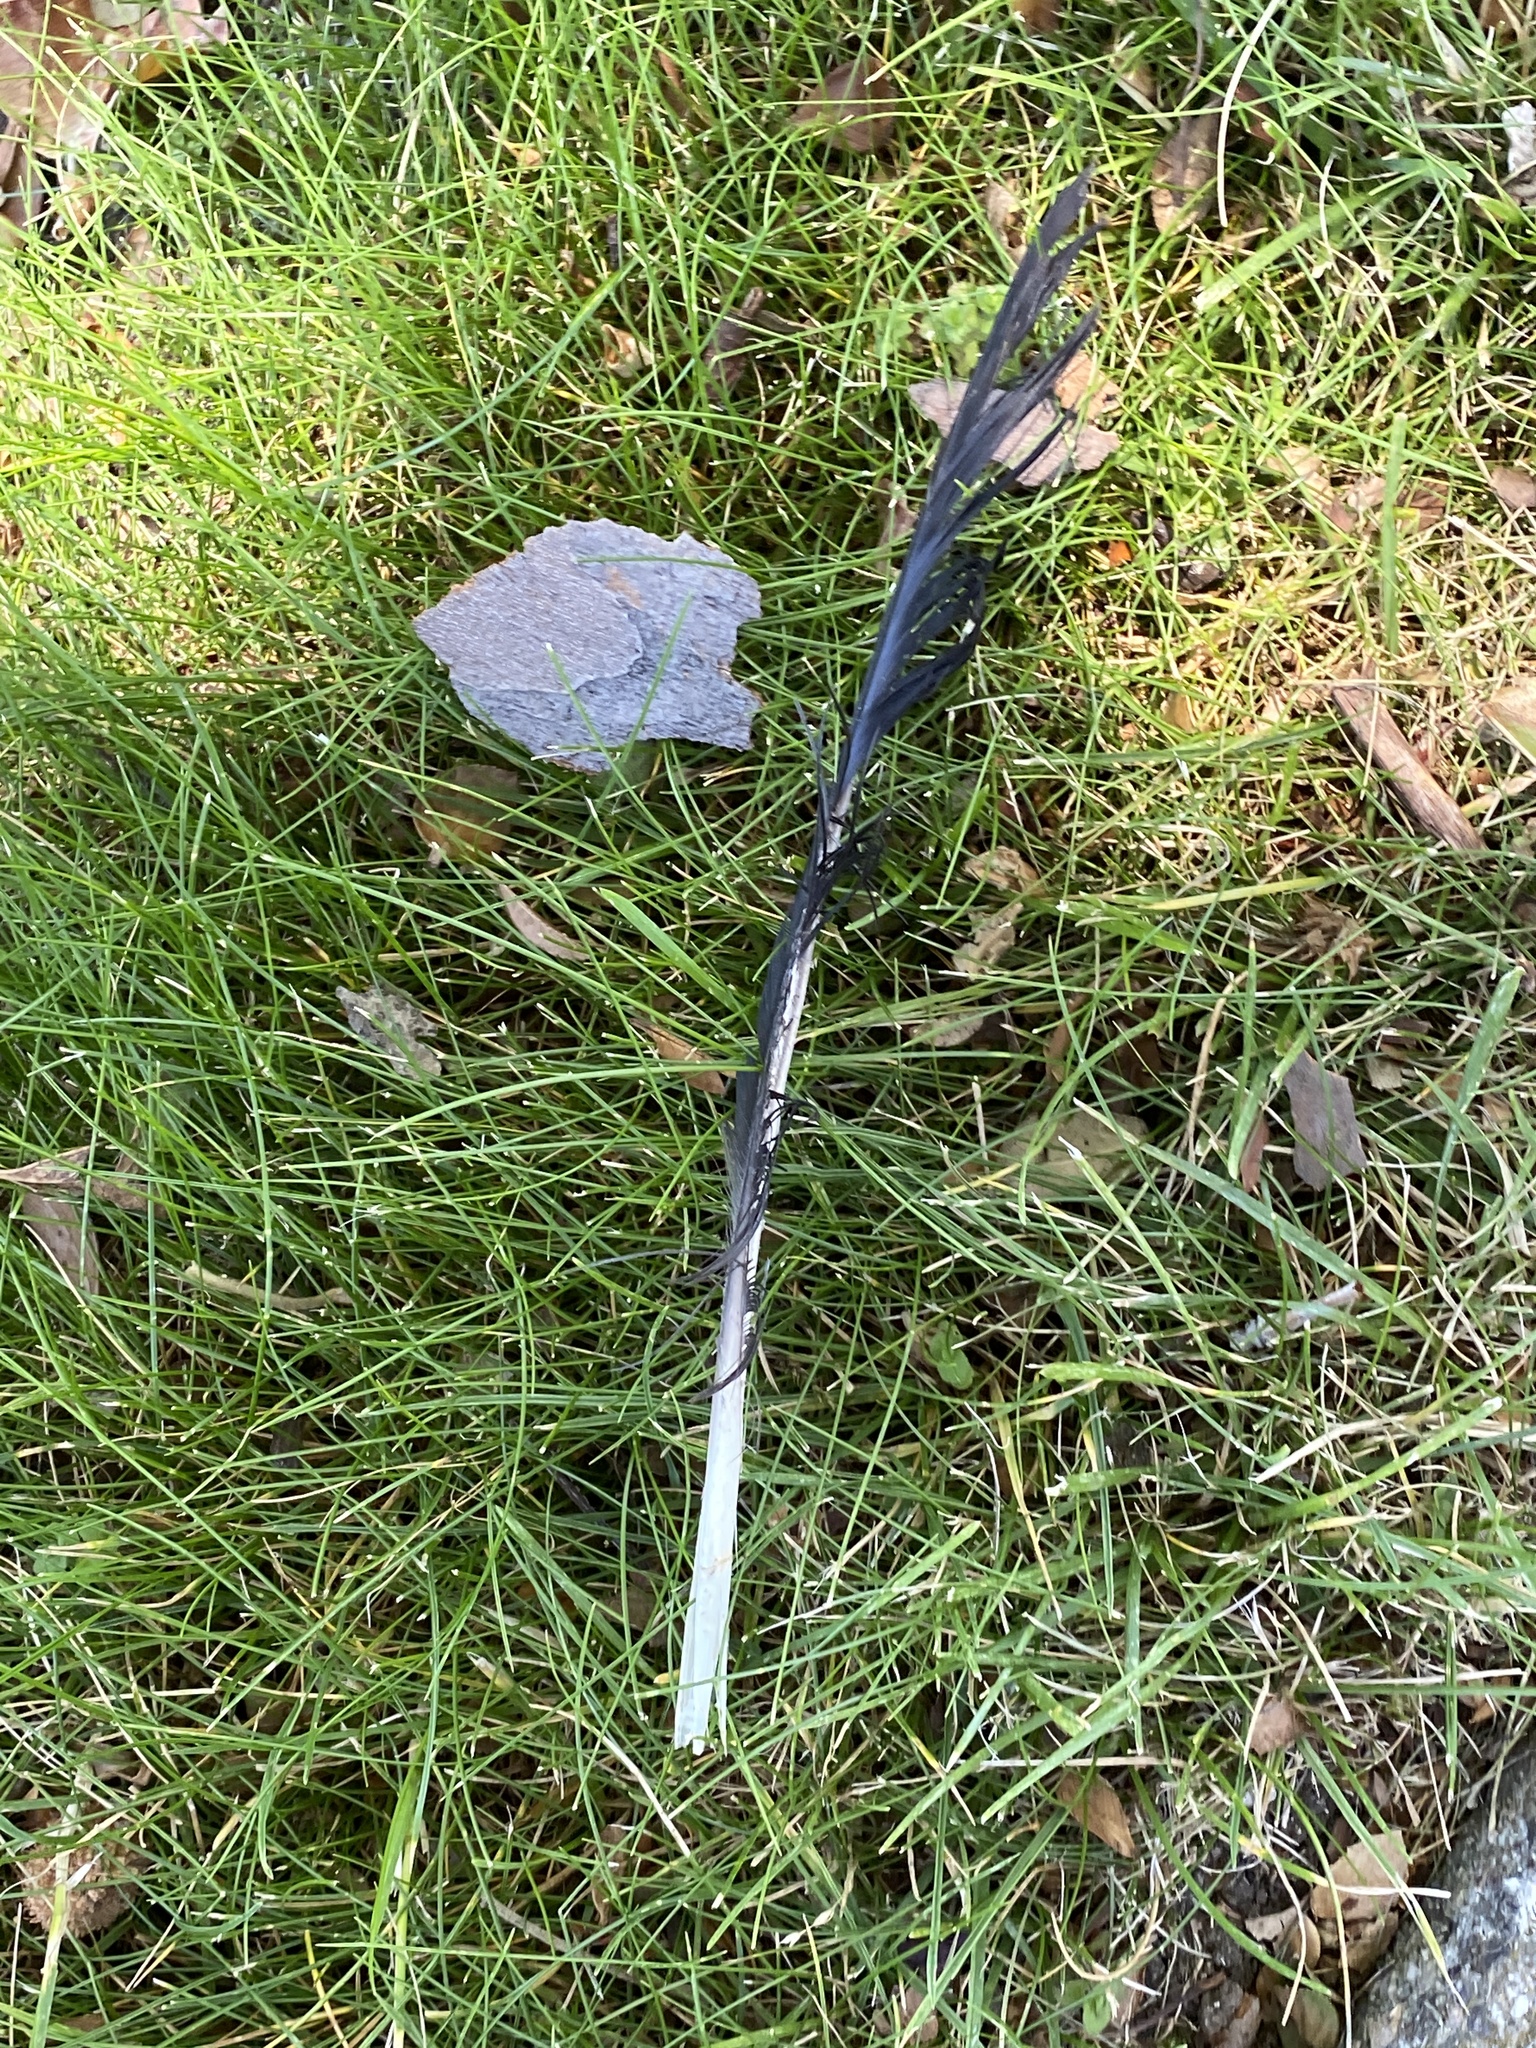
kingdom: Animalia
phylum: Chordata
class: Aves
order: Passeriformes
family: Corvidae
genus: Corvus
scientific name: Corvus brachyrhynchos
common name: American crow
